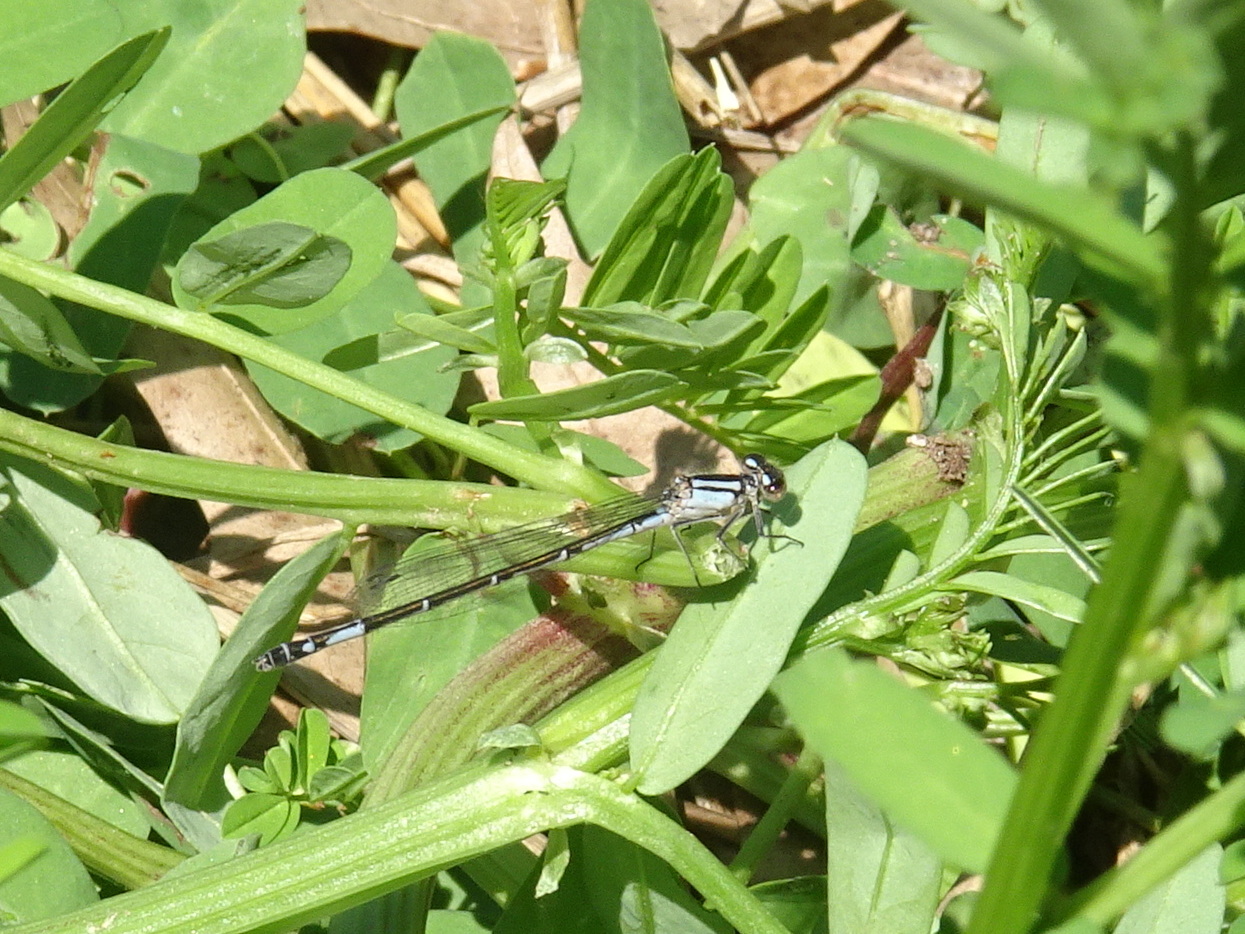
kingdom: Animalia
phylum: Arthropoda
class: Insecta
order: Odonata
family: Coenagrionidae
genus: Enallagma
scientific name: Enallagma aspersum
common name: Azure bluet
